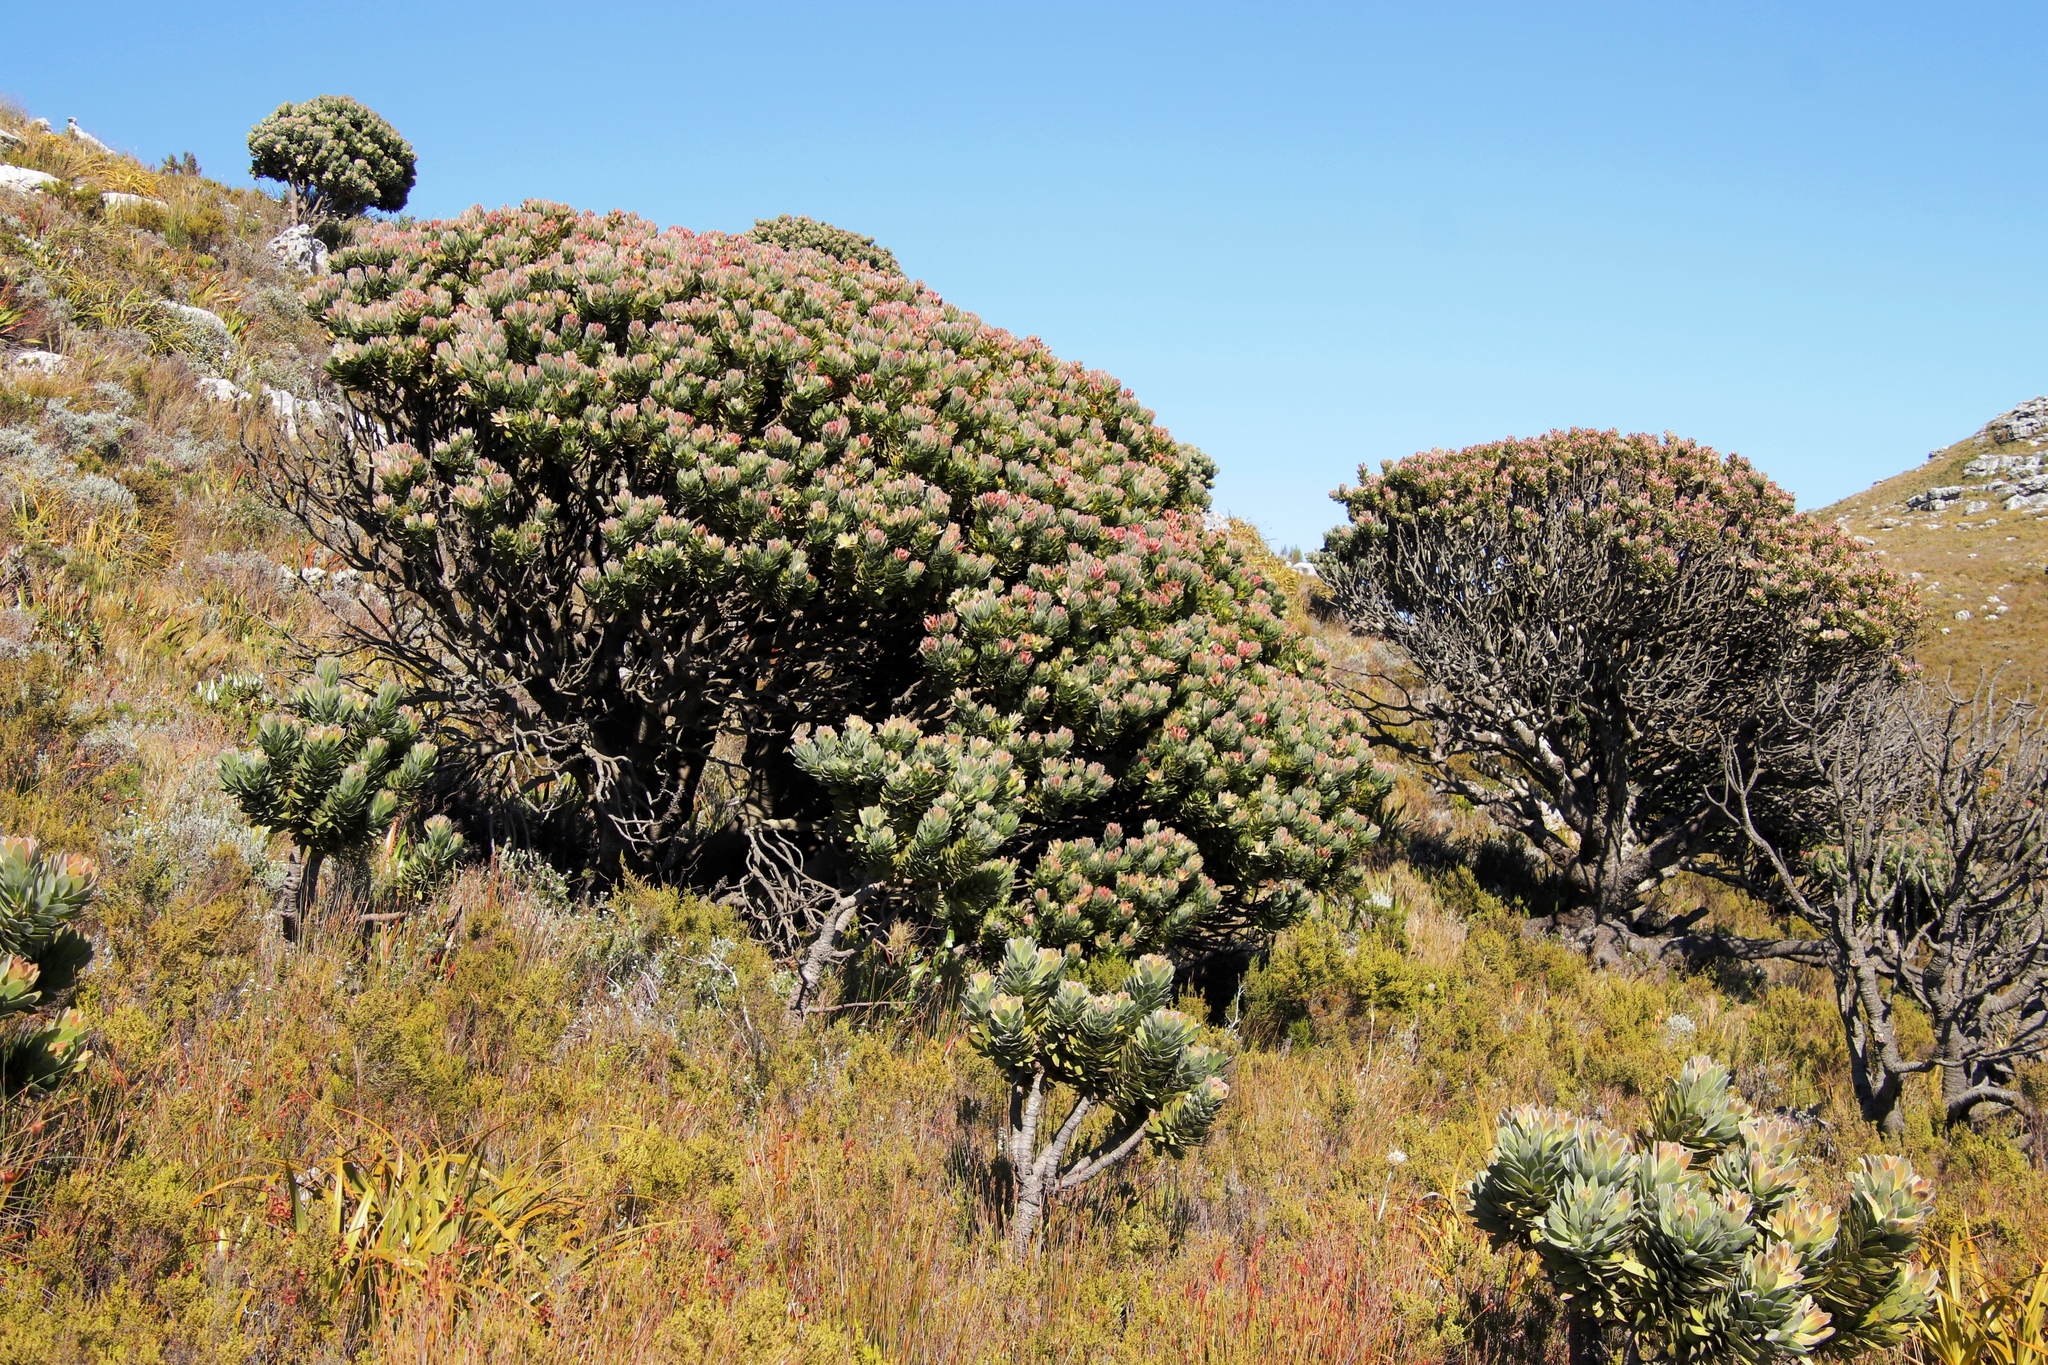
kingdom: Plantae
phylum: Tracheophyta
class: Magnoliopsida
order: Proteales
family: Proteaceae
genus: Mimetes
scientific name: Mimetes fimbriifolius
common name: Fringed bottlebrush
